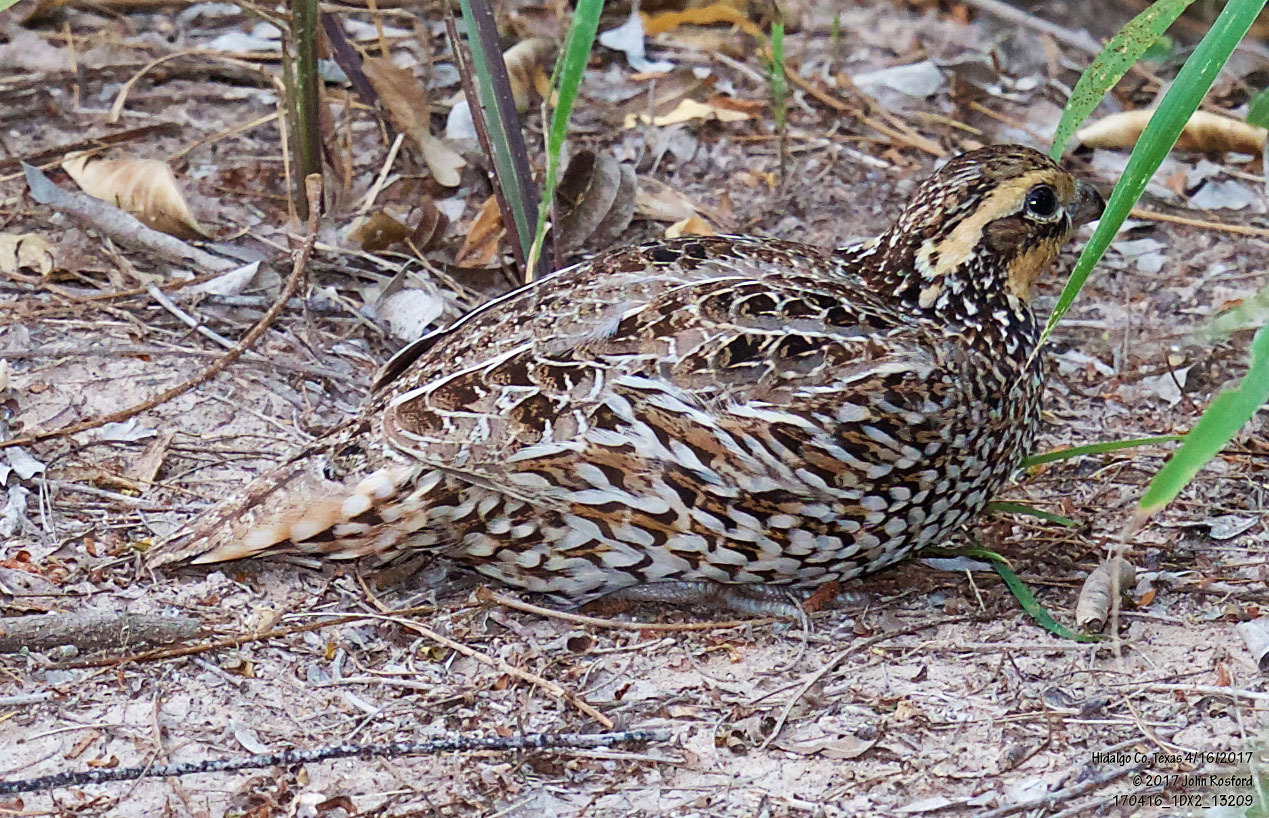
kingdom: Animalia
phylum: Chordata
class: Aves
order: Galliformes
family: Odontophoridae
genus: Colinus
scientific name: Colinus virginianus
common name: Northern bobwhite
